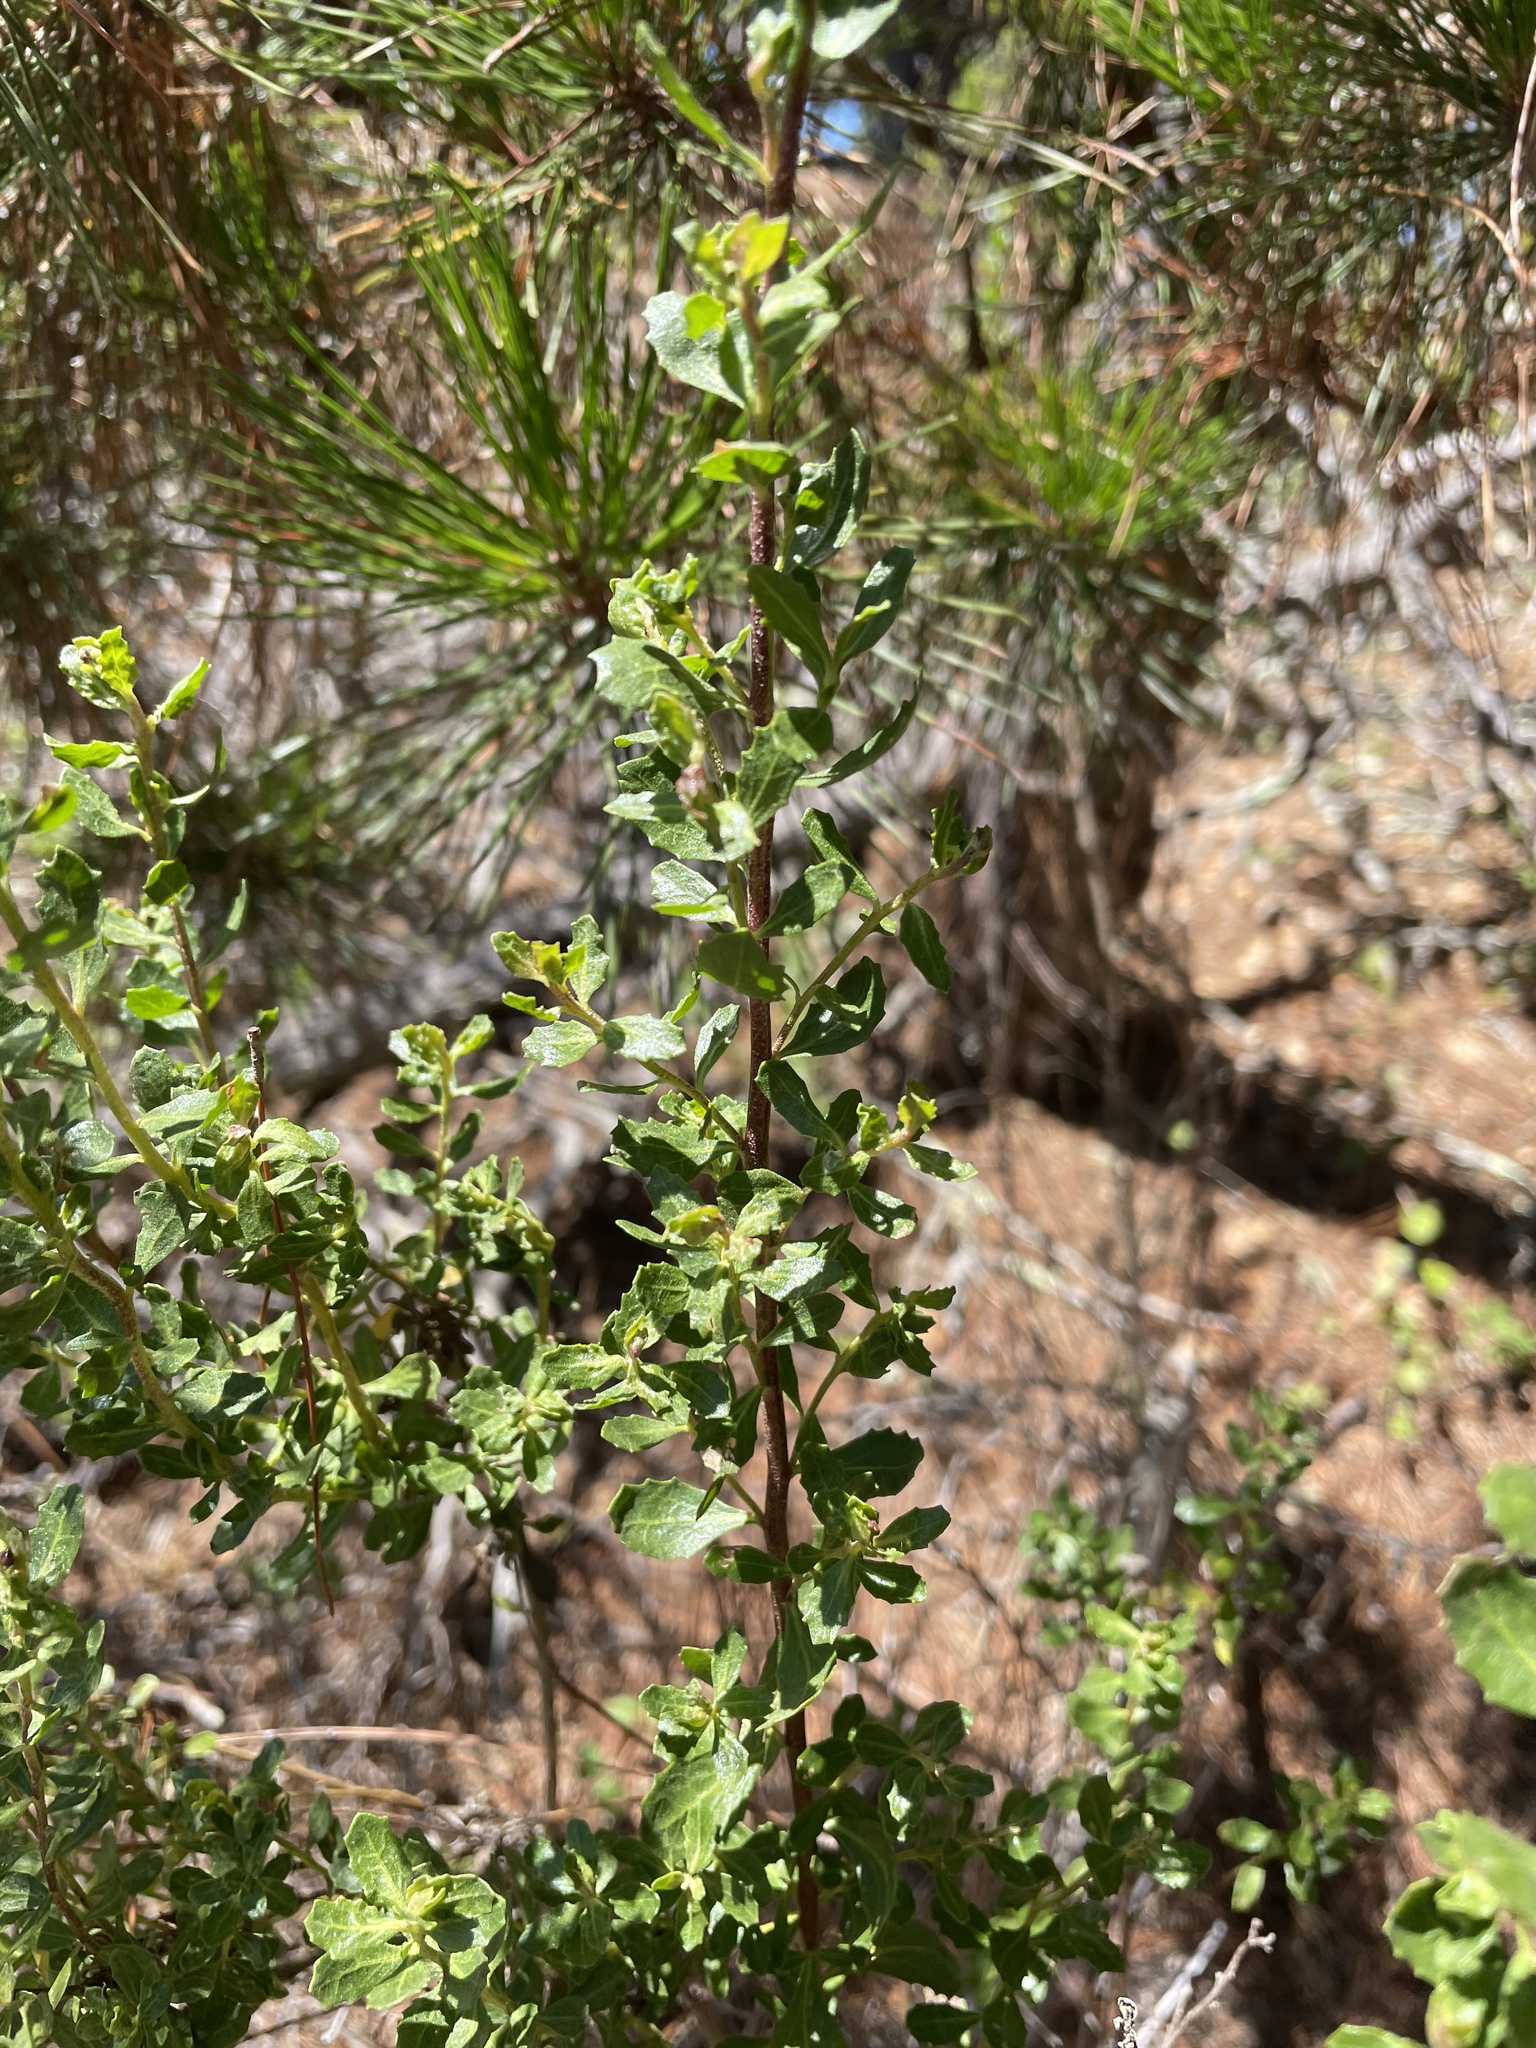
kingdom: Plantae
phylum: Tracheophyta
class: Magnoliopsida
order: Asterales
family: Asteraceae
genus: Baccharis
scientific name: Baccharis pilularis
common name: Coyotebrush
